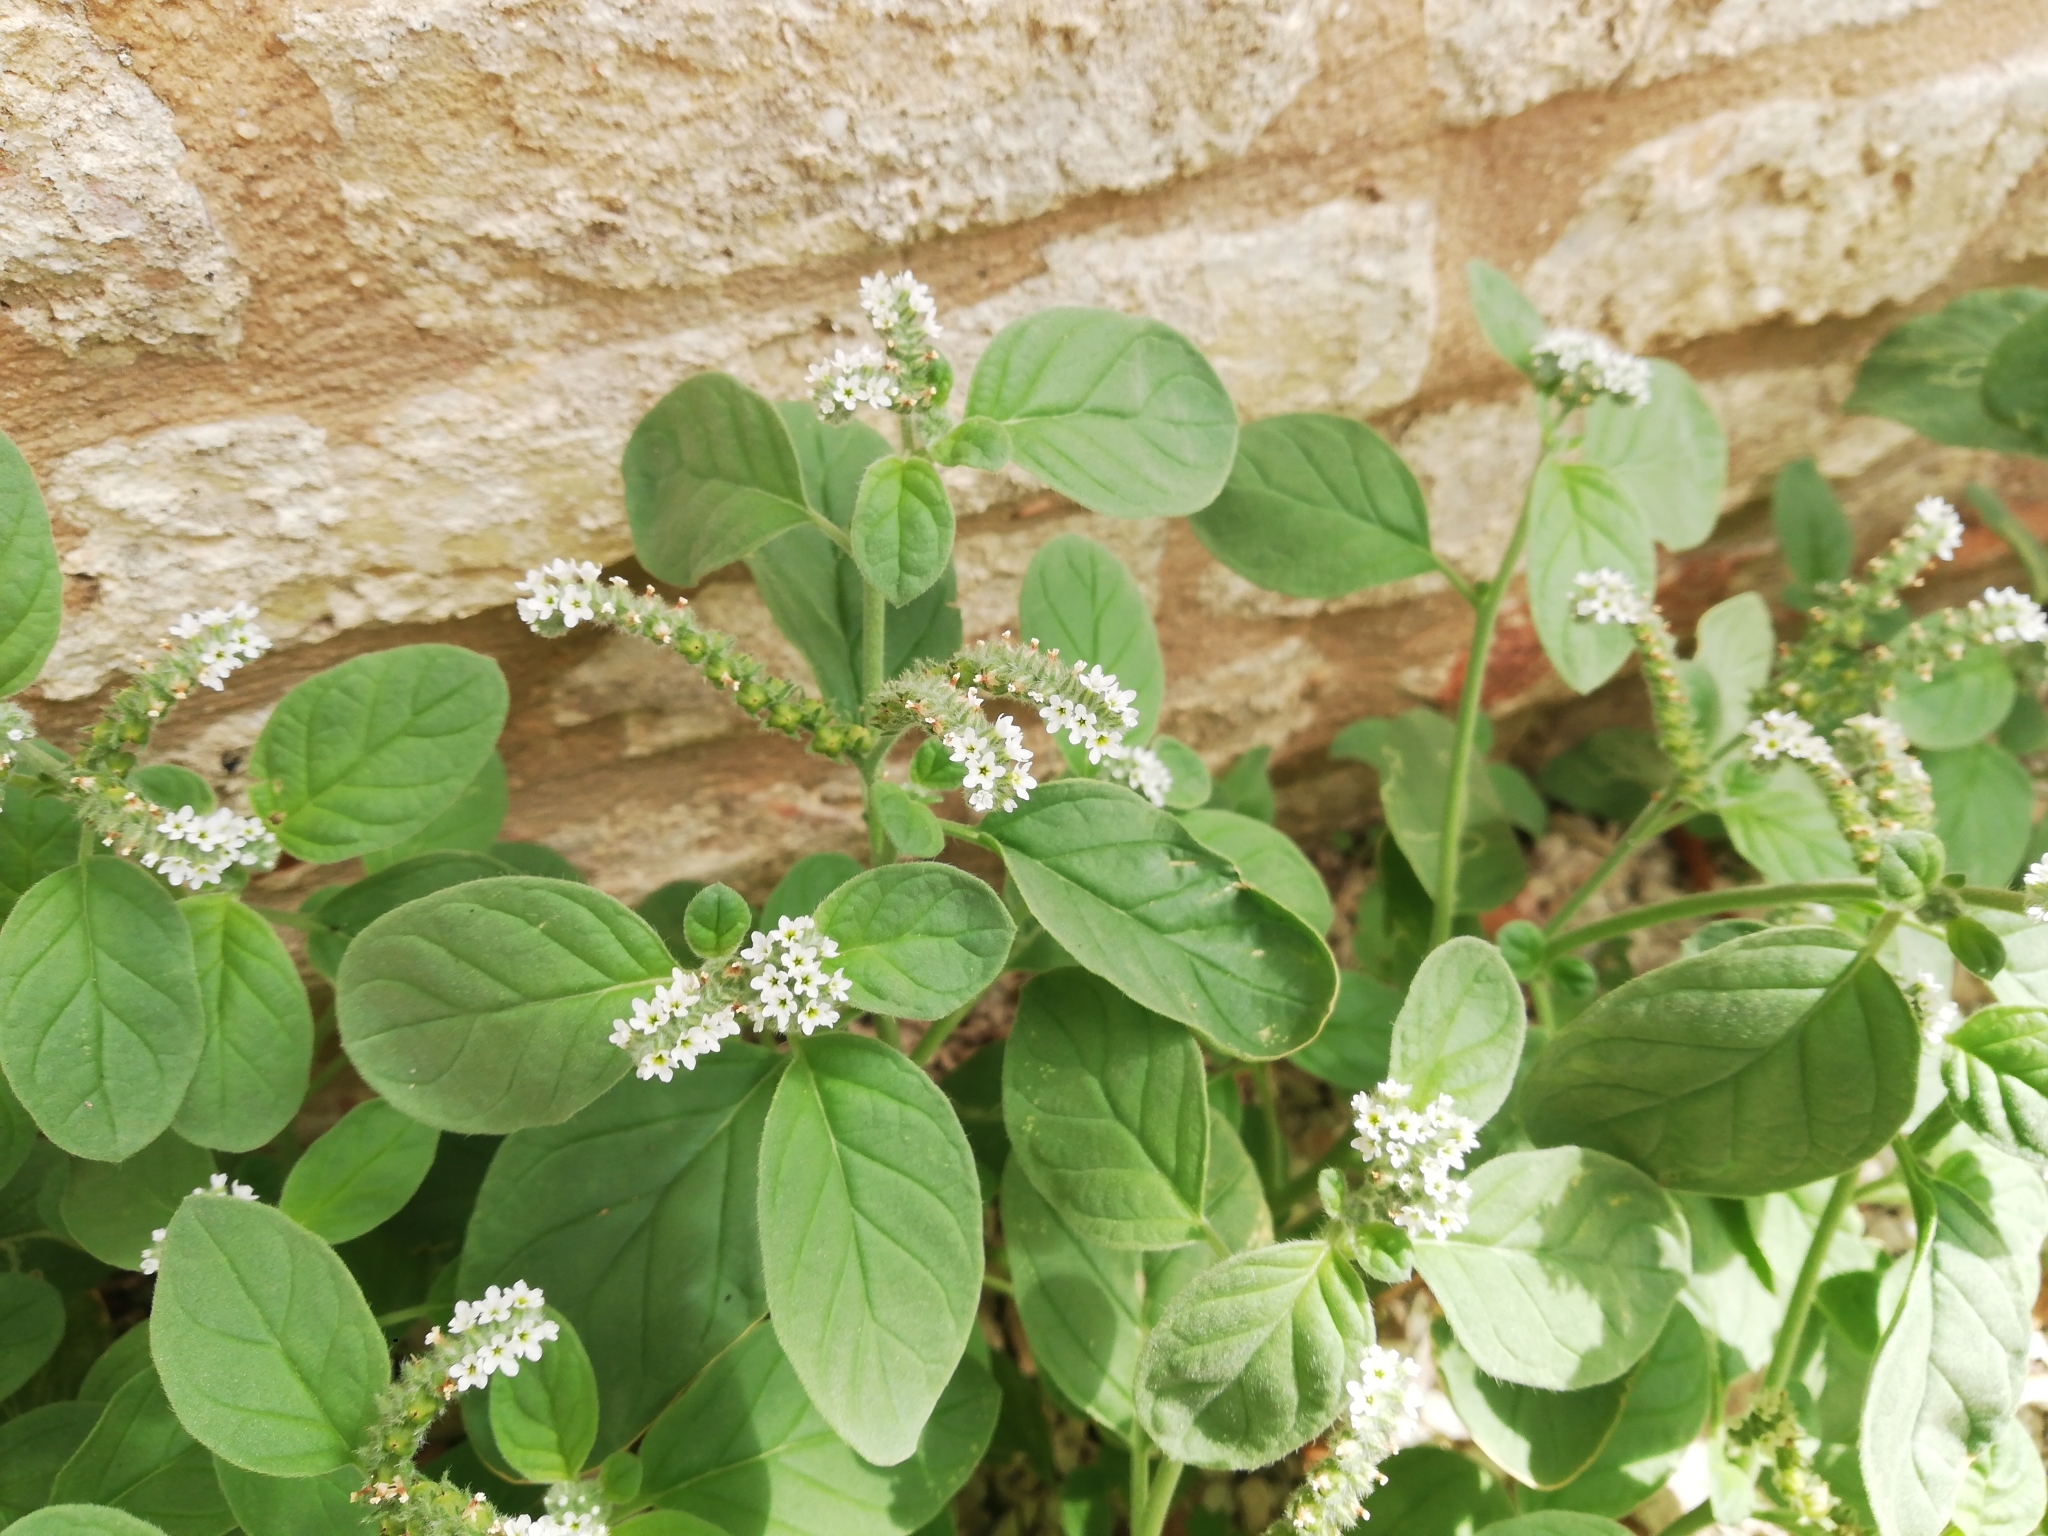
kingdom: Plantae
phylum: Tracheophyta
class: Magnoliopsida
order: Boraginales
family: Heliotropiaceae
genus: Heliotropium
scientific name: Heliotropium europaeum
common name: European heliotrope
